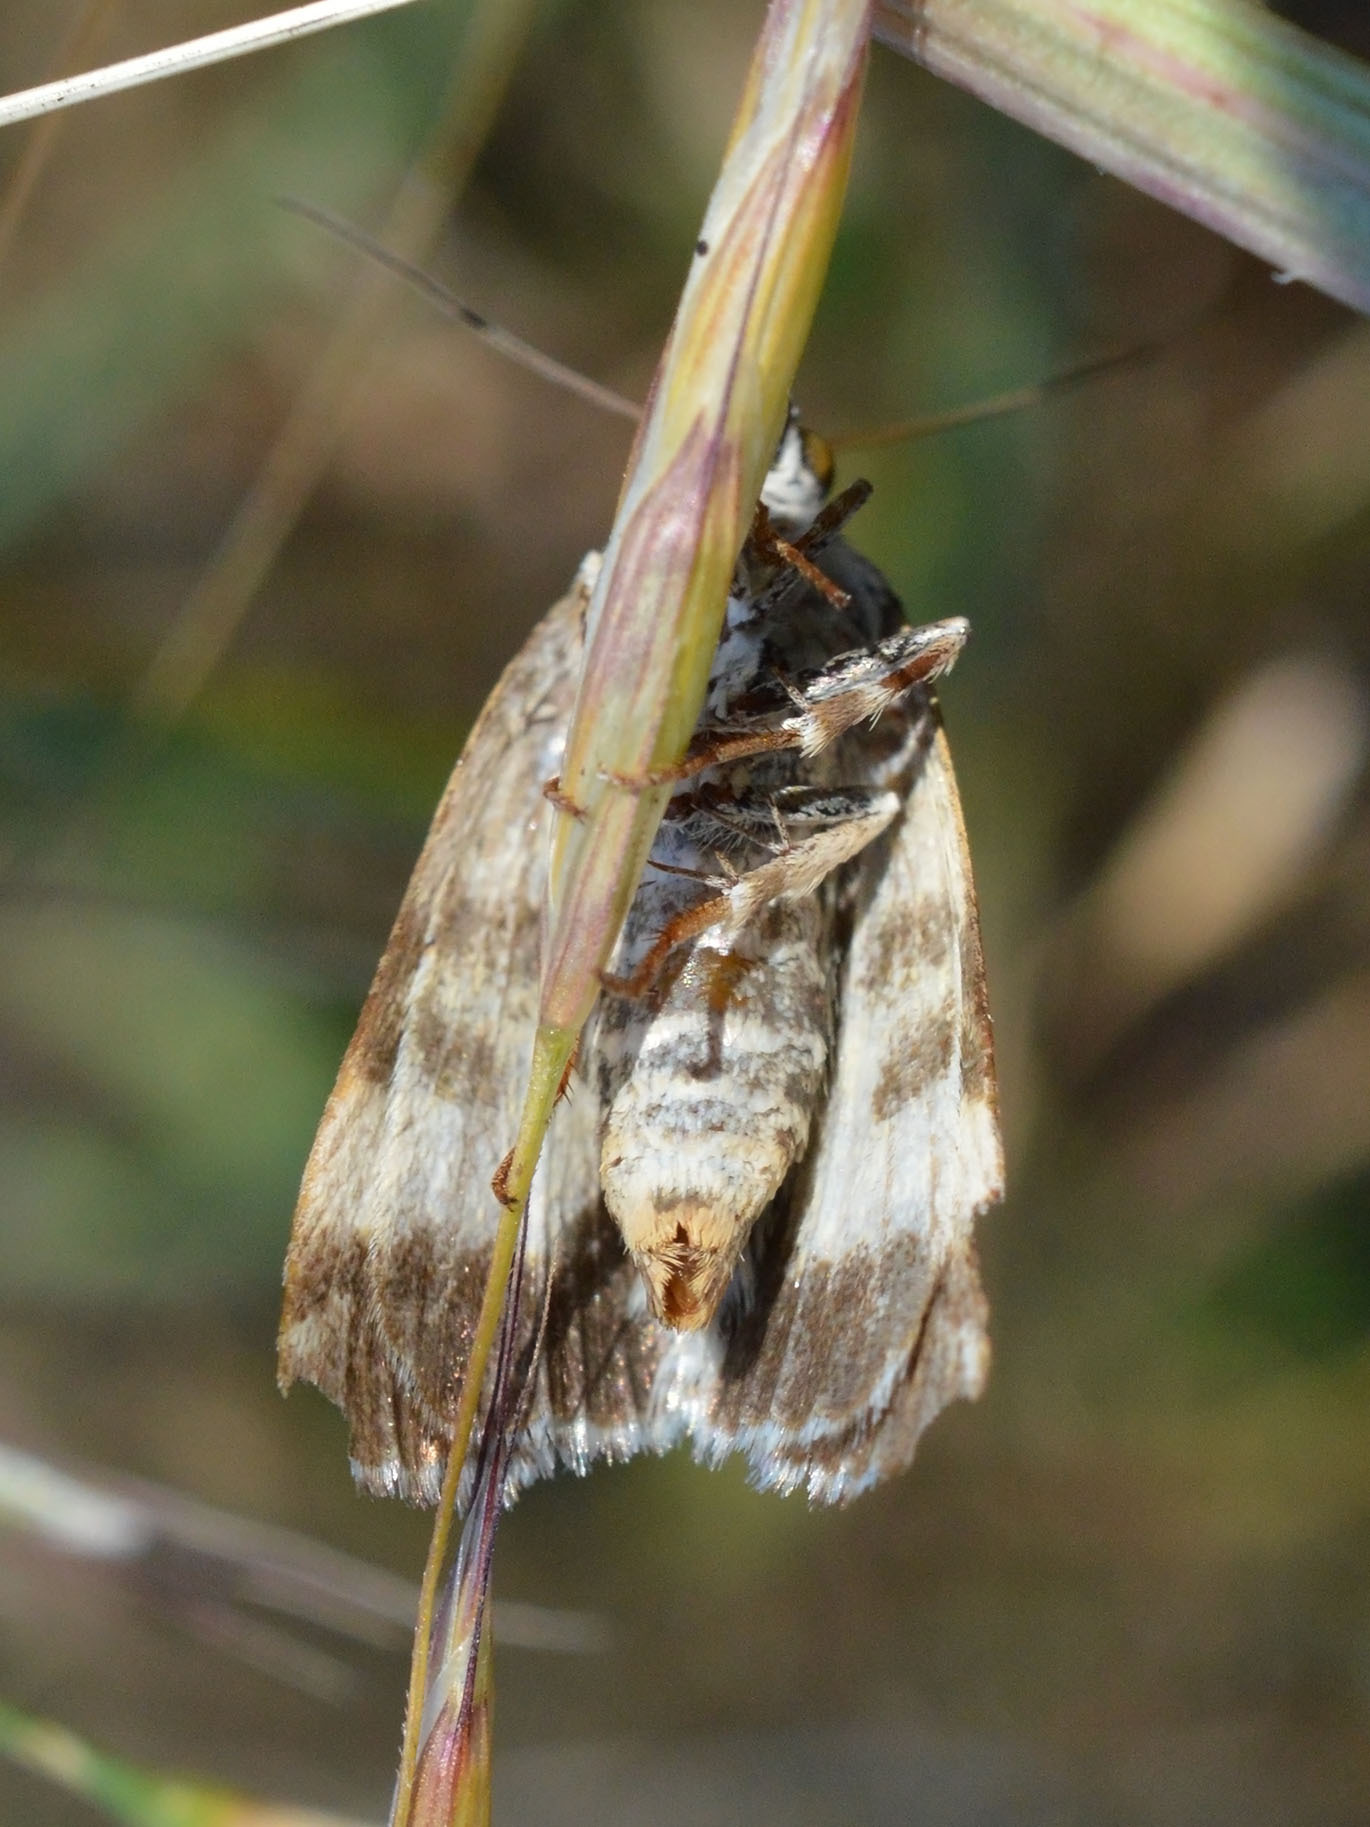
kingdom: Animalia
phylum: Arthropoda
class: Insecta
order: Lepidoptera
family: Noctuidae
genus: Acontia
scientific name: Acontia lucida
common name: Pale shoulder
